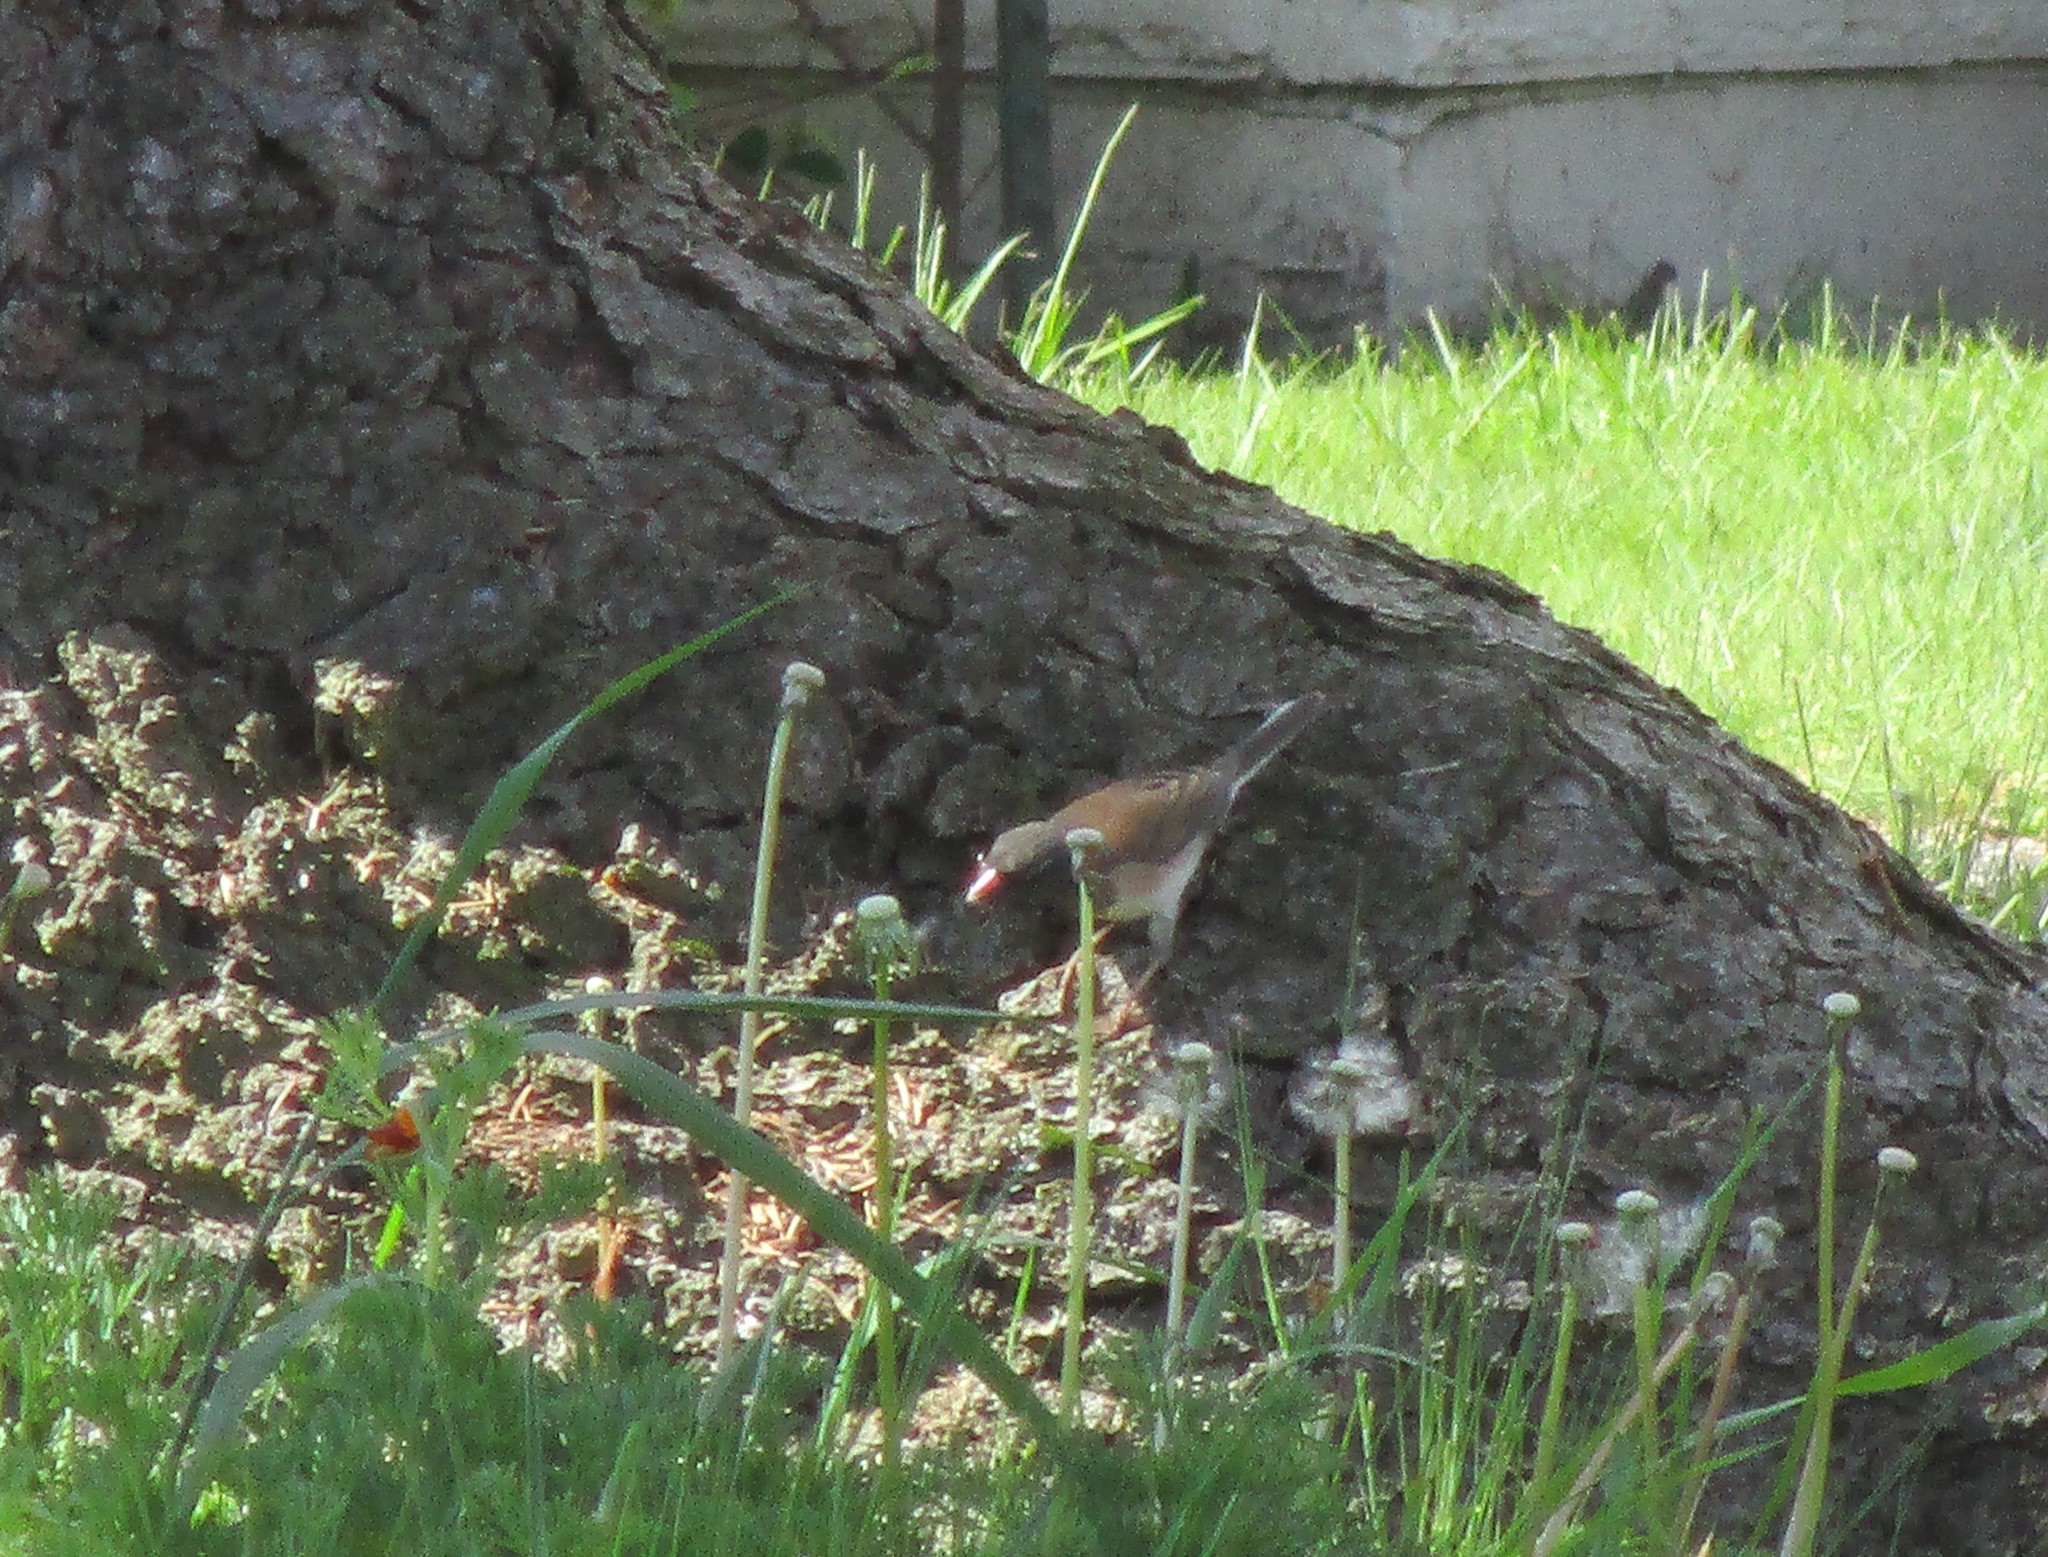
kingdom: Animalia
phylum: Chordata
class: Aves
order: Passeriformes
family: Passerellidae
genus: Junco
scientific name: Junco hyemalis
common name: Dark-eyed junco
